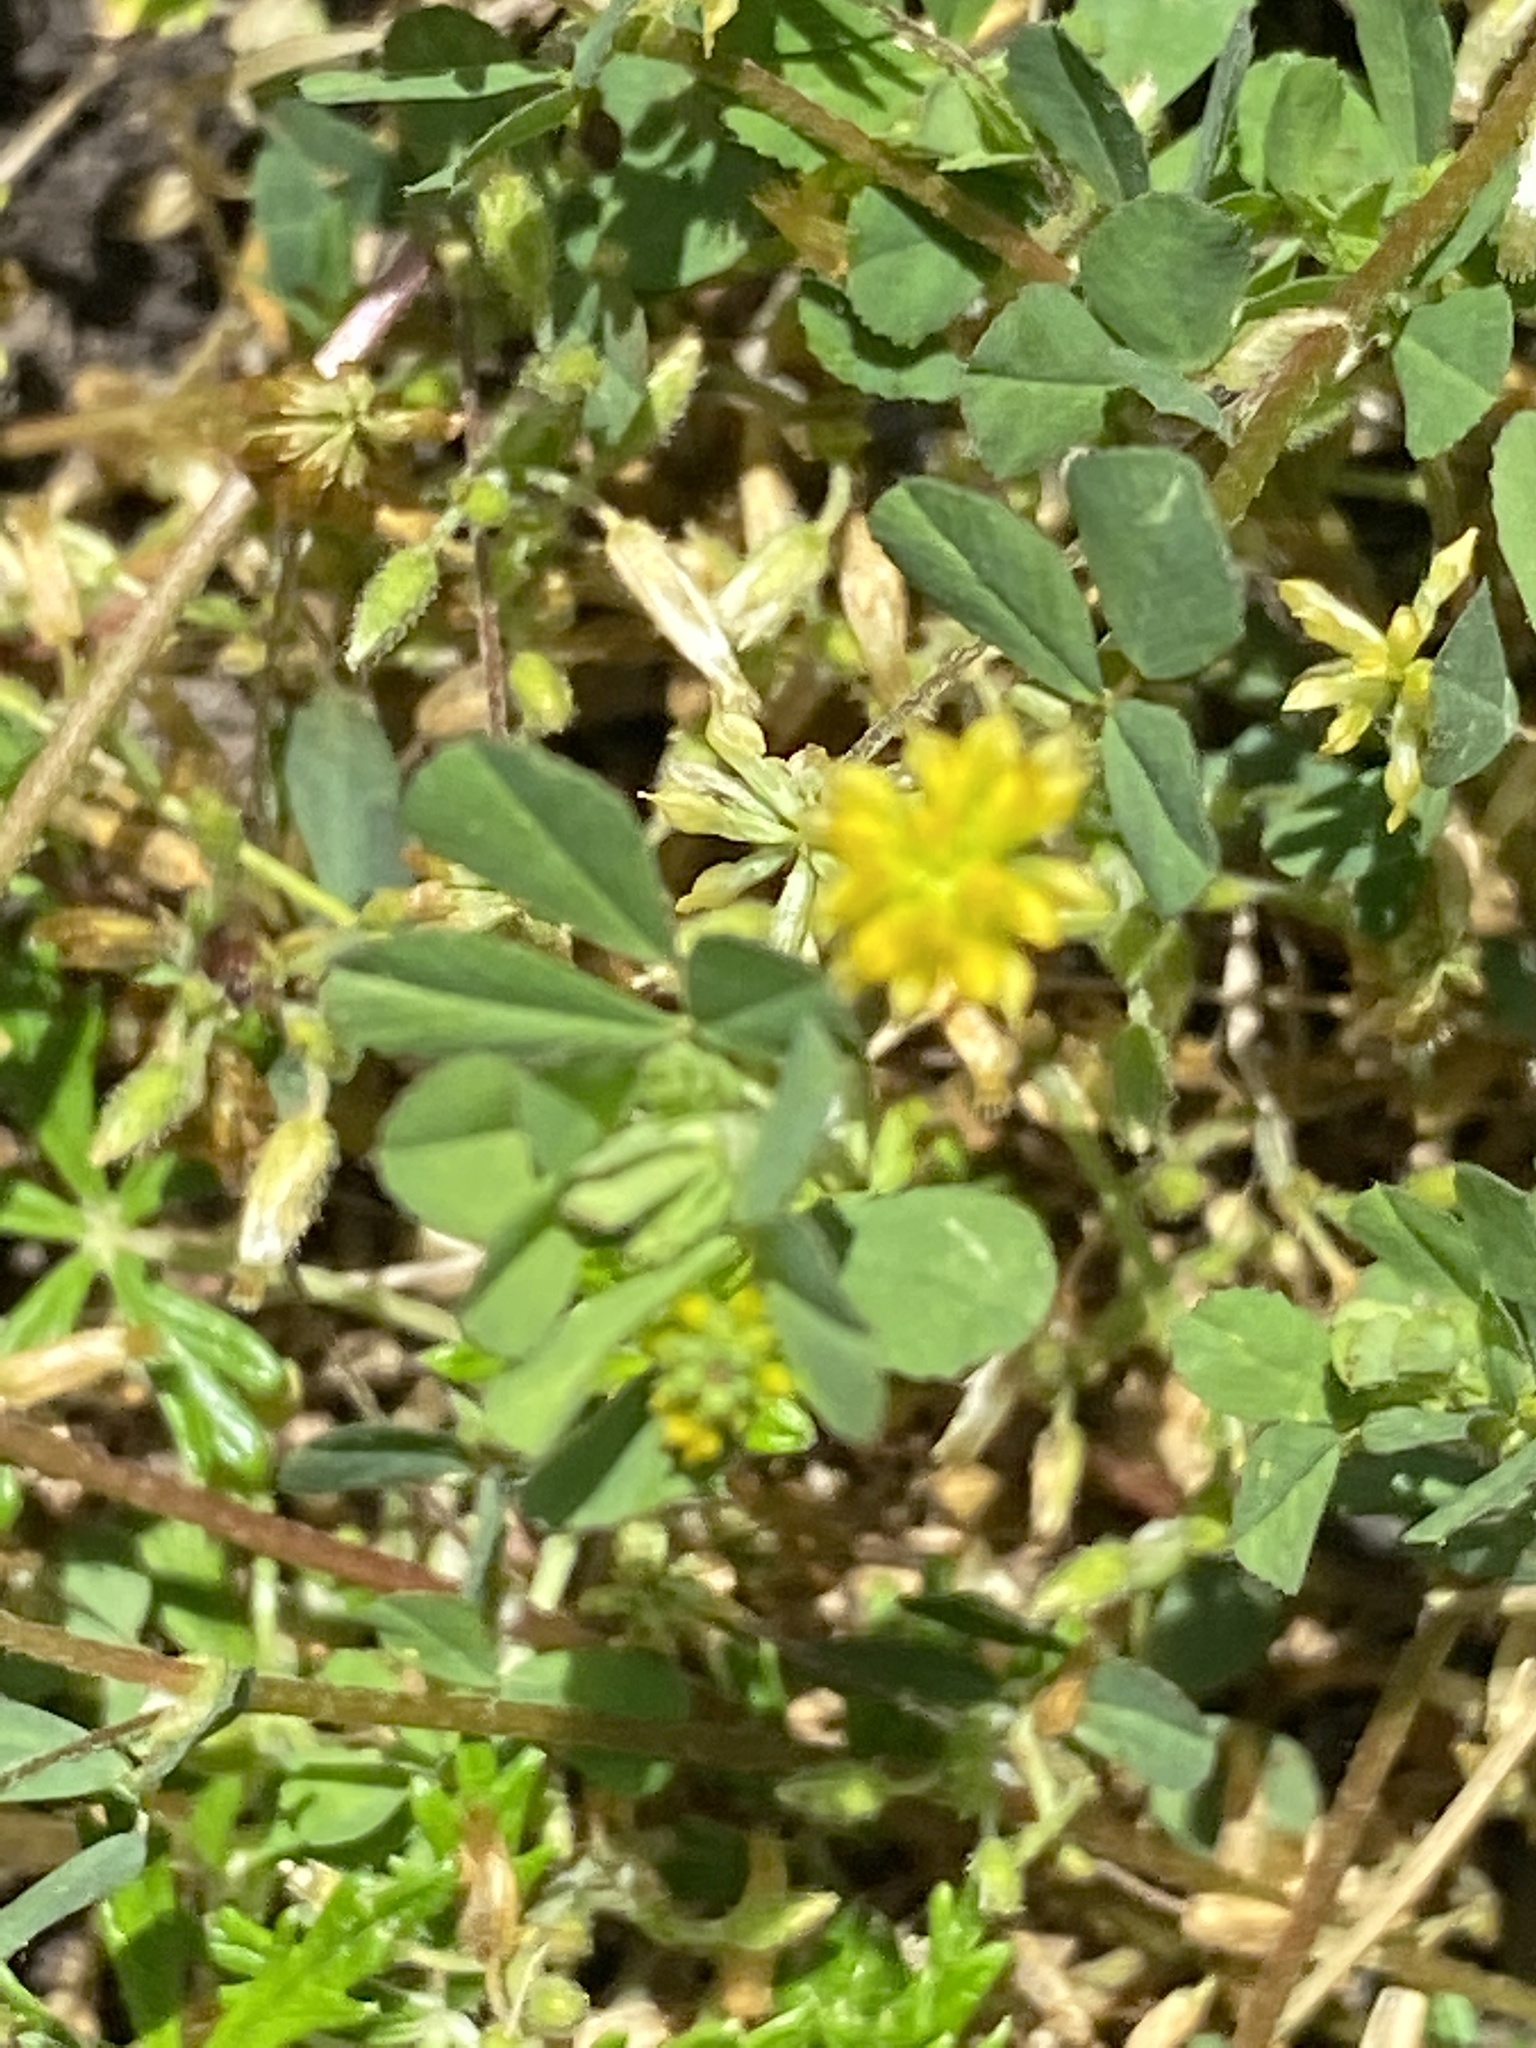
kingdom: Plantae
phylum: Tracheophyta
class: Magnoliopsida
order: Fabales
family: Fabaceae
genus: Trifolium
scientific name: Trifolium dubium
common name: Suckling clover
